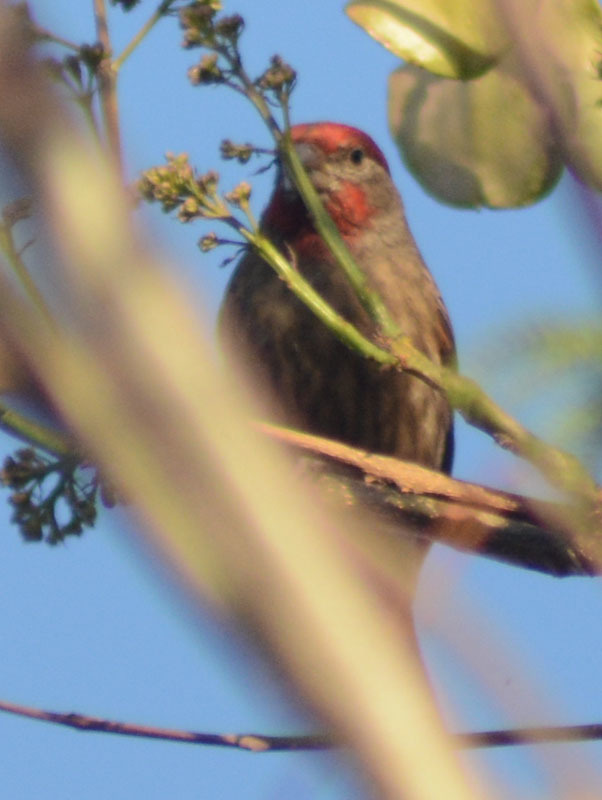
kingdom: Animalia
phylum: Chordata
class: Aves
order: Passeriformes
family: Fringillidae
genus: Haemorhous
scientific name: Haemorhous mexicanus
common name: House finch
